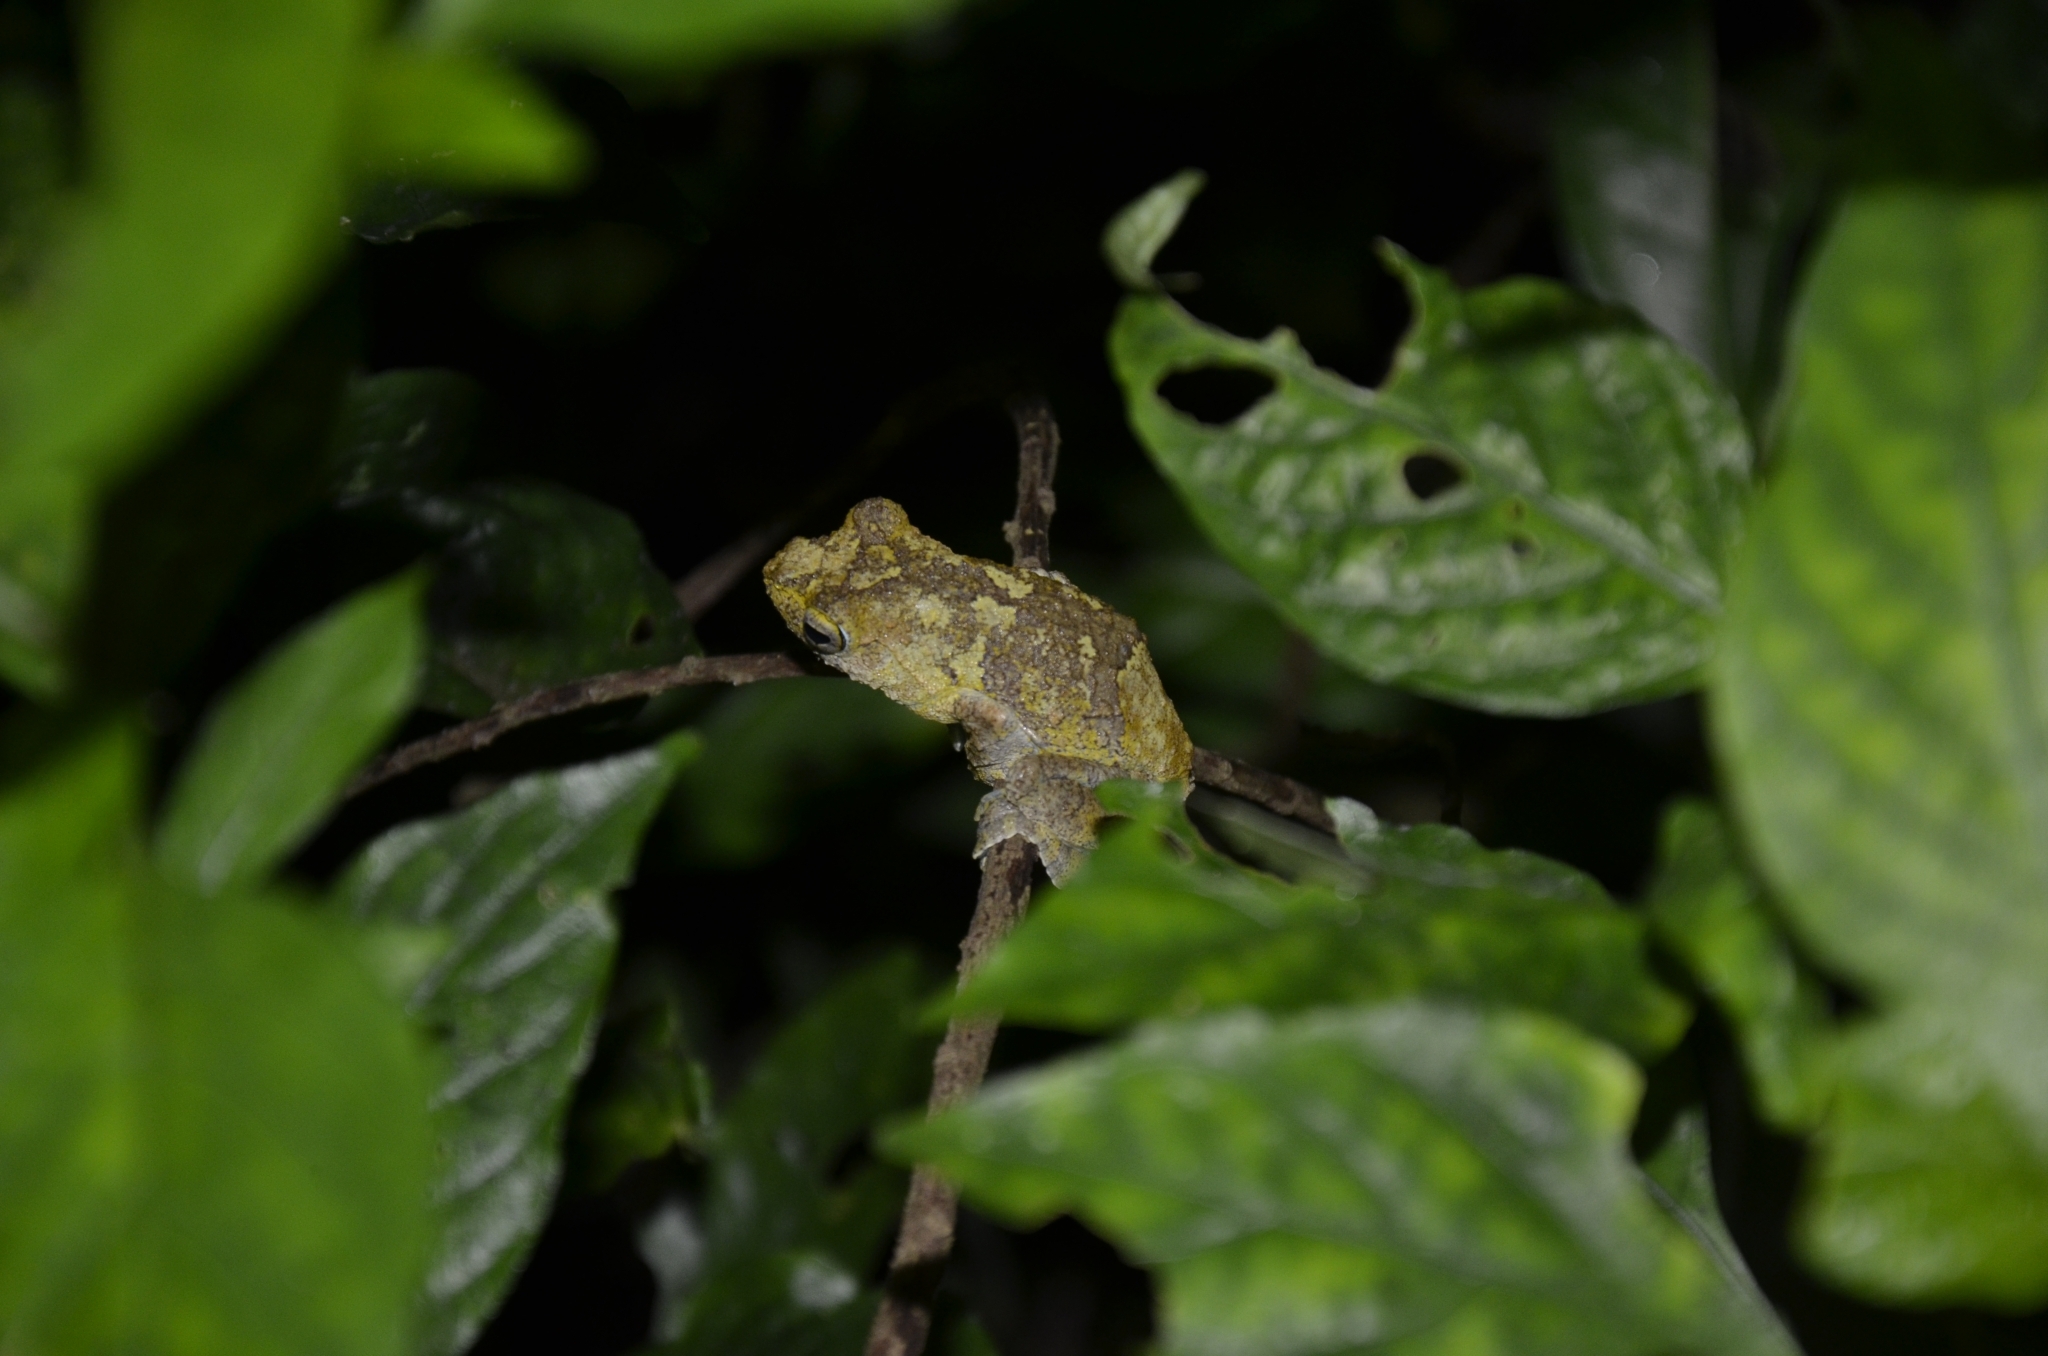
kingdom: Animalia
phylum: Chordata
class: Amphibia
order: Anura
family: Rhacophoridae
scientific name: Rhacophoridae
